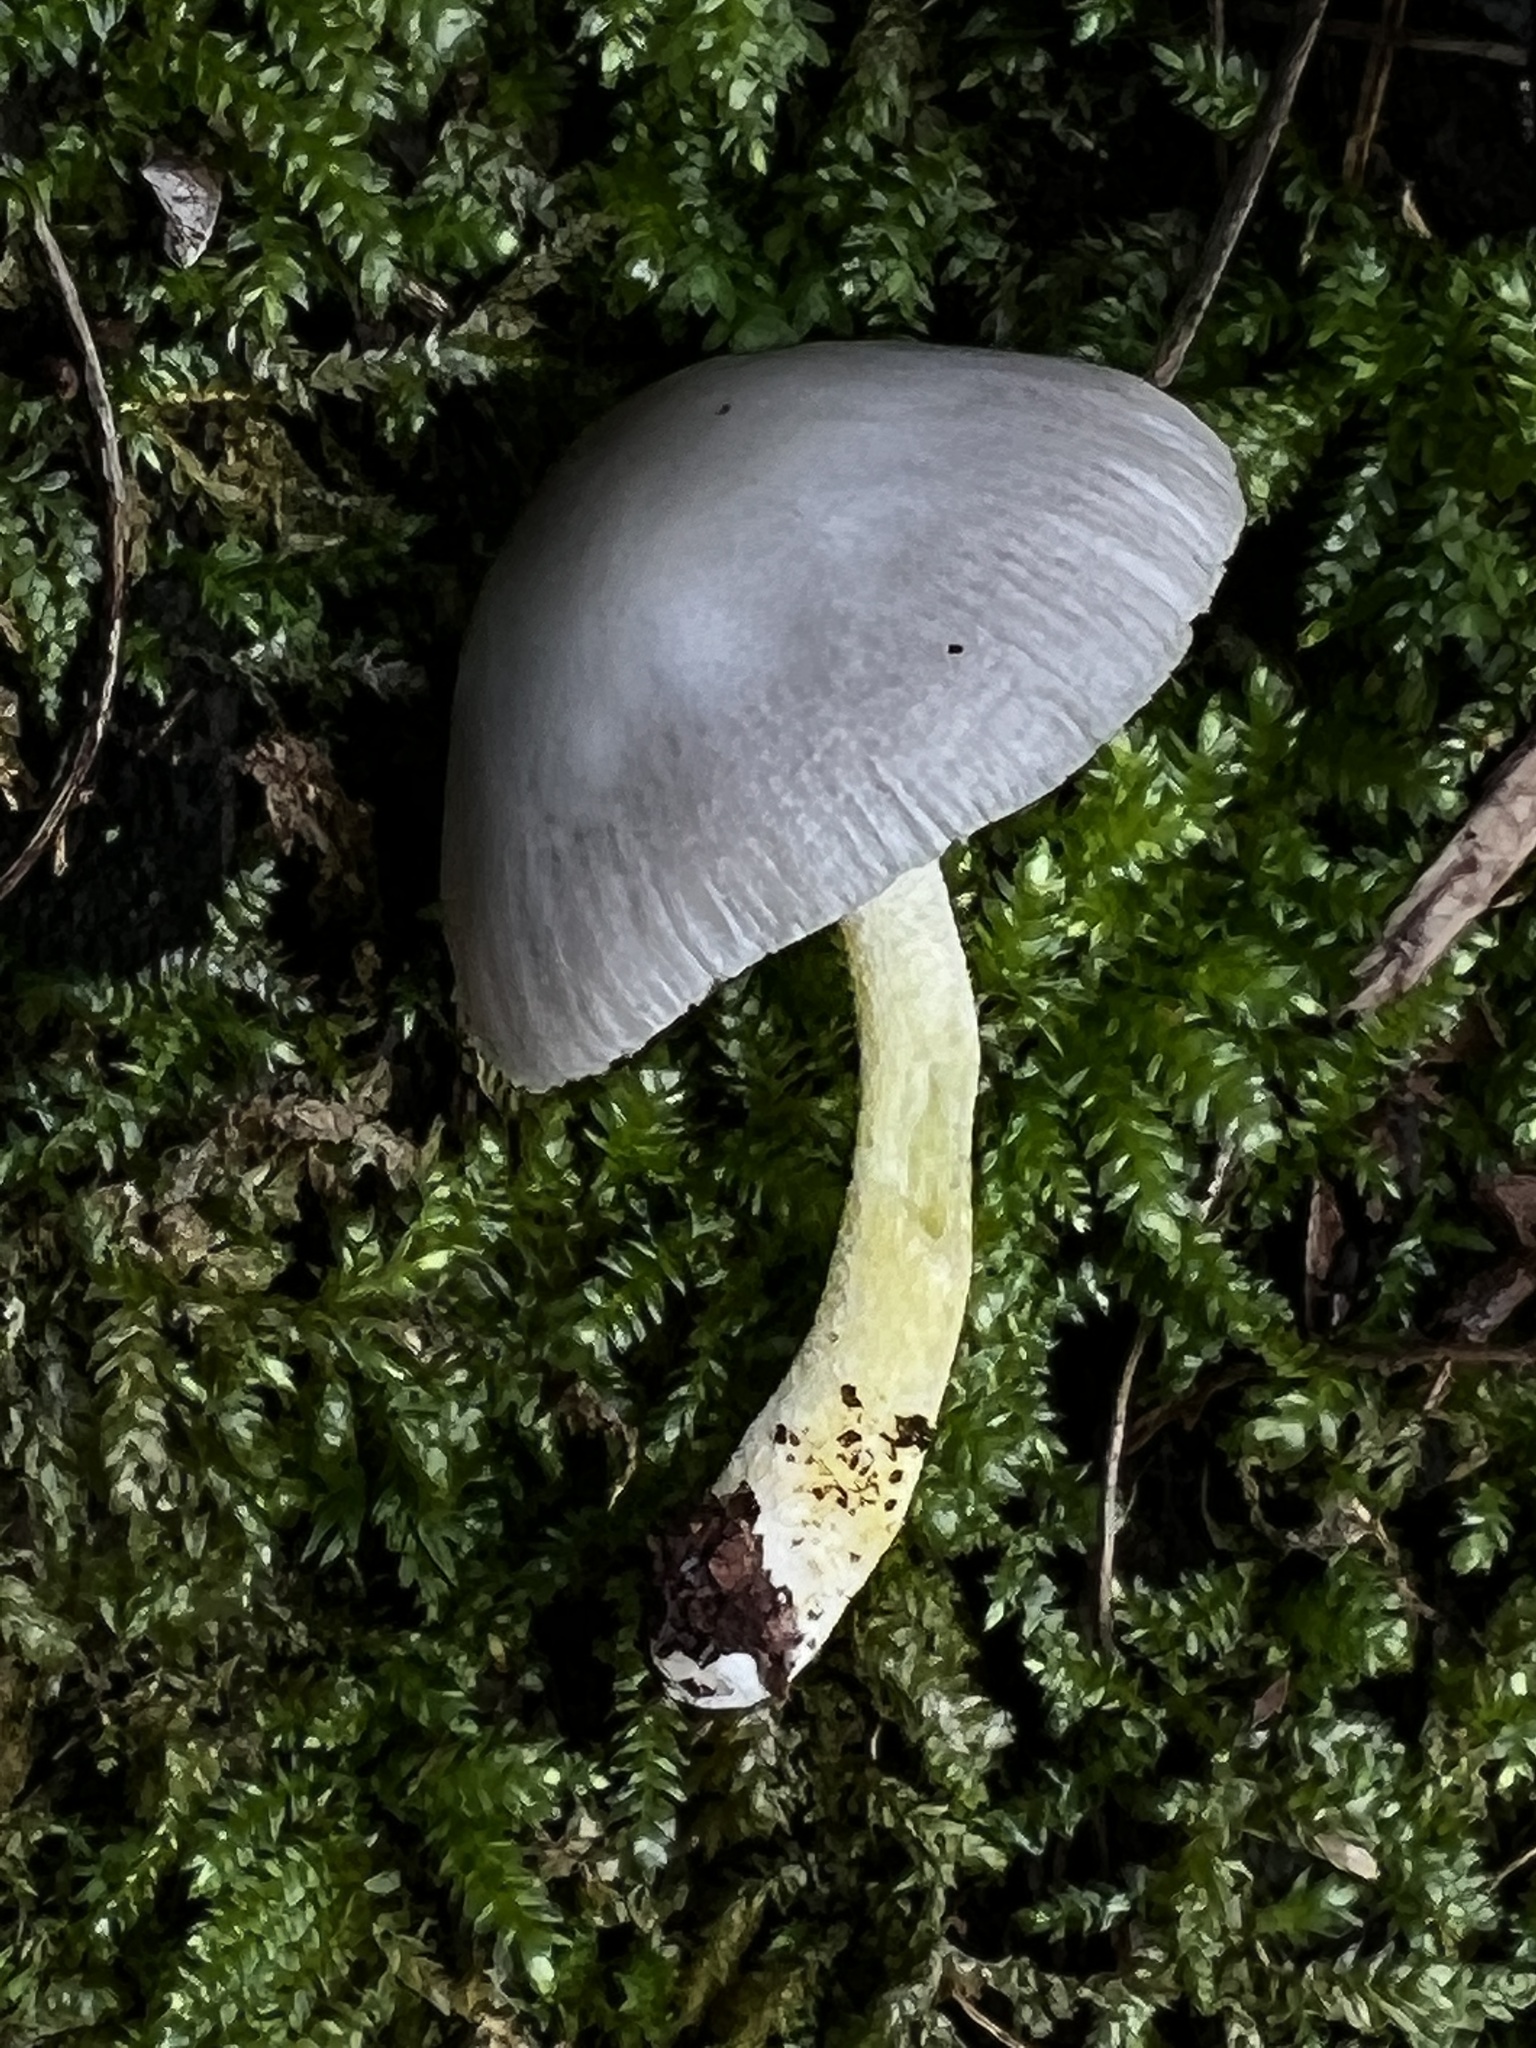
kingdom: Fungi
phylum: Basidiomycota
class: Agaricomycetes
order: Agaricales
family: Bolbitiaceae
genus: Bolbitius
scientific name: Bolbitius reticulatus
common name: Netted fieldcap
